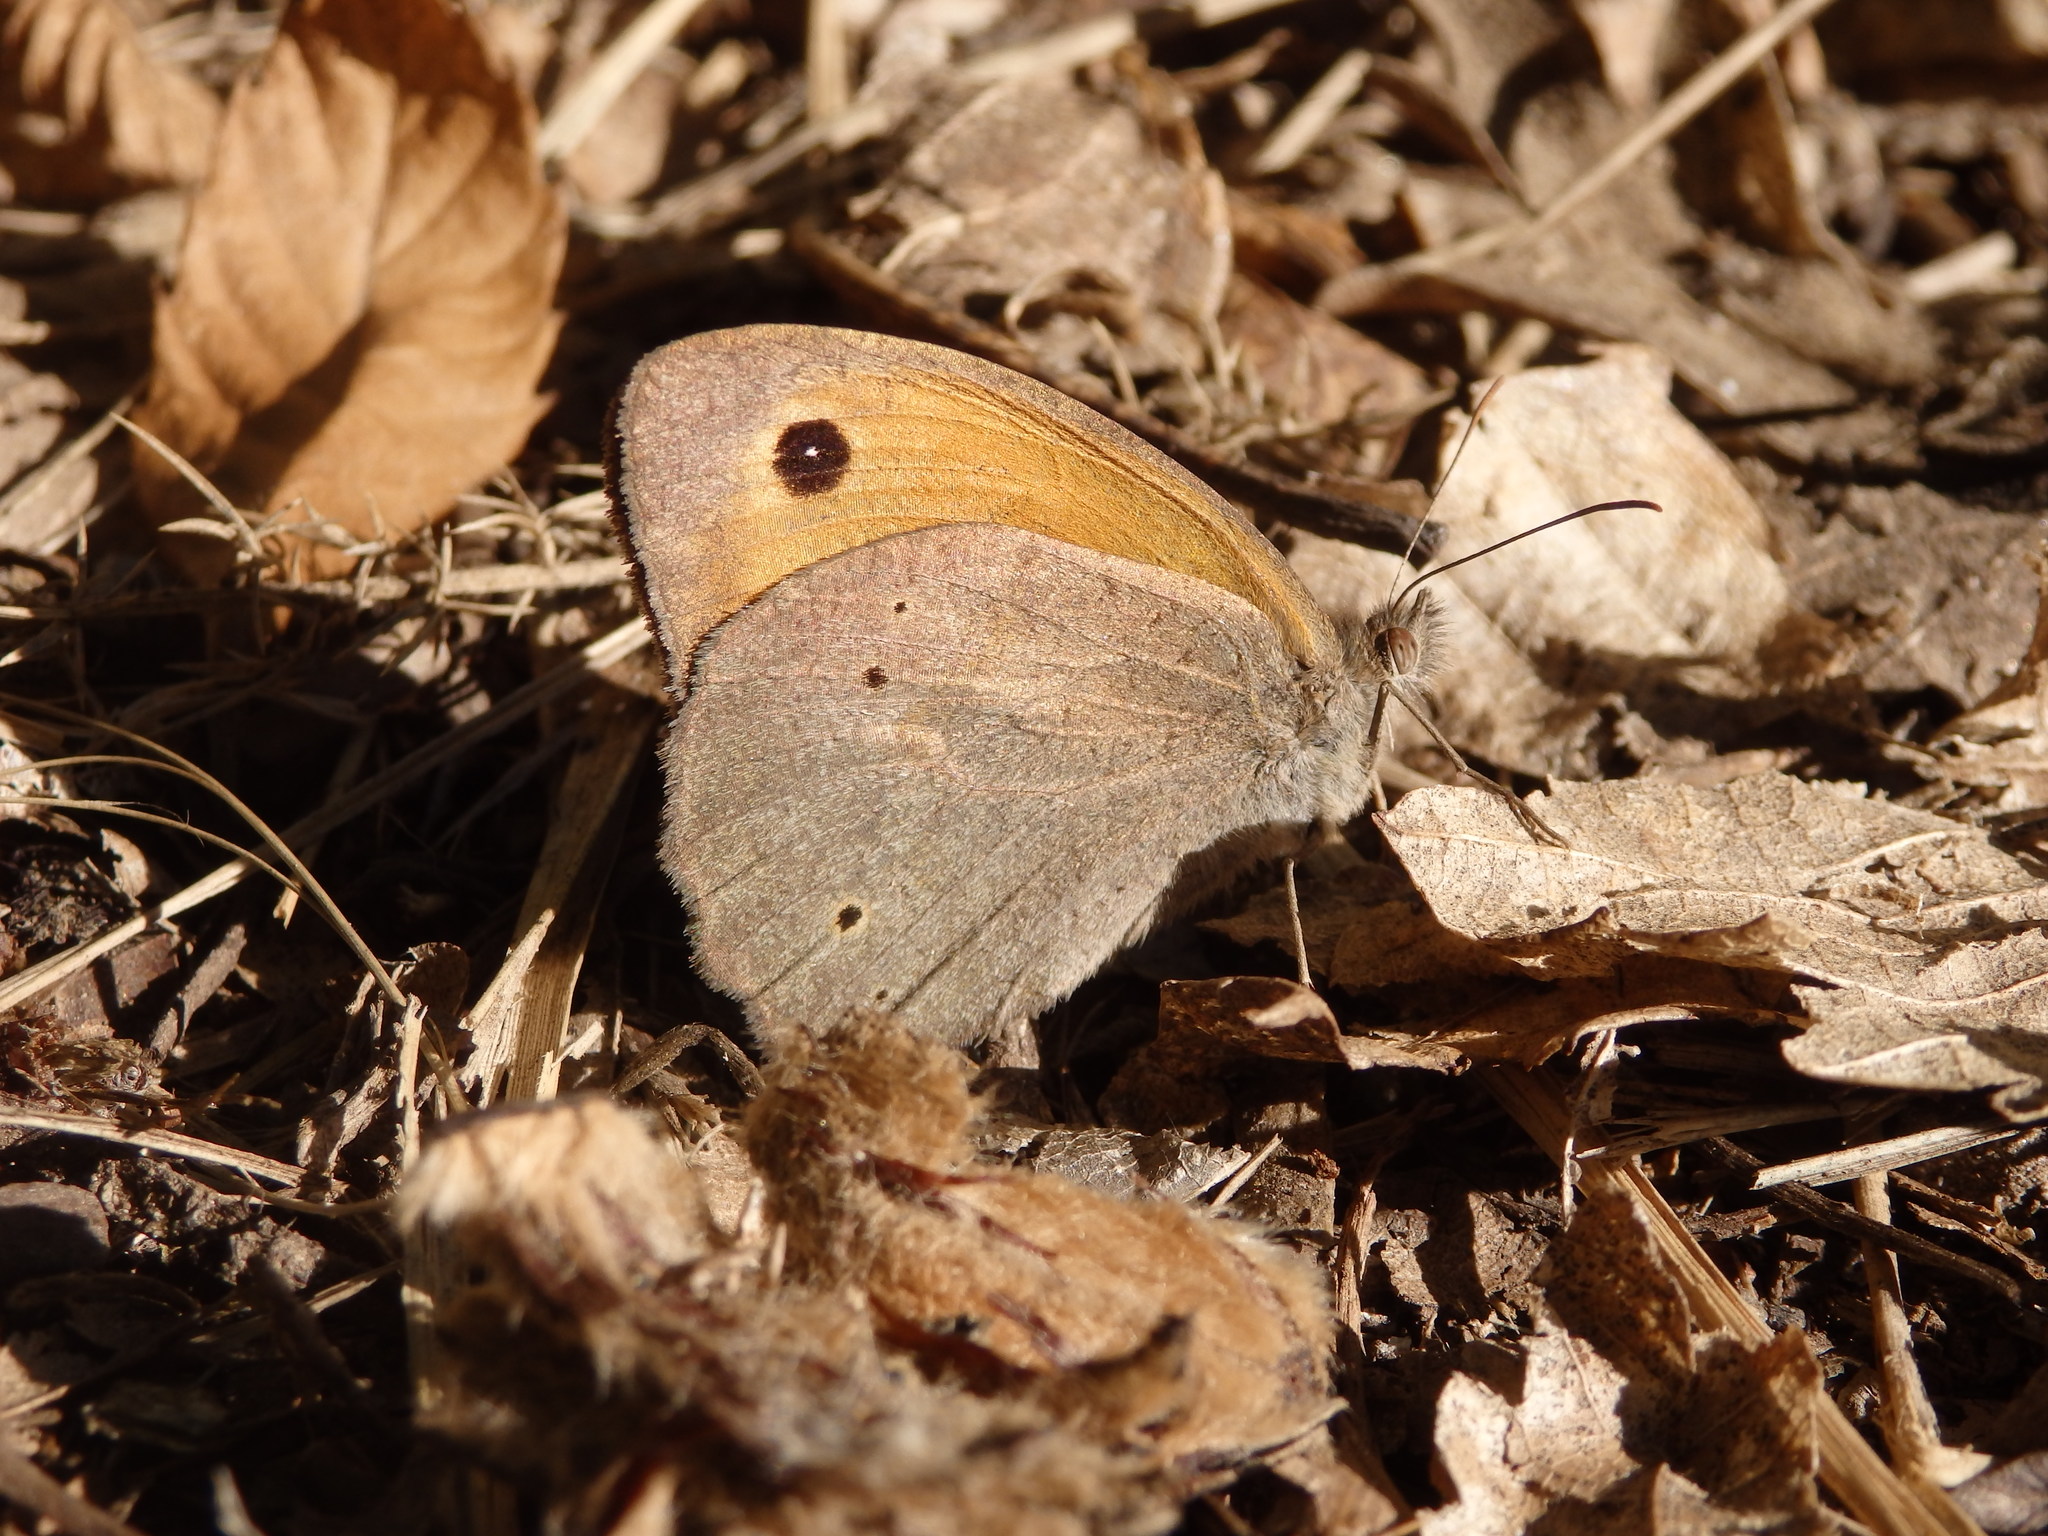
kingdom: Animalia
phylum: Arthropoda
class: Insecta
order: Lepidoptera
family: Nymphalidae
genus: Maniola
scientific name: Maniola jurtina
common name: Meadow brown
